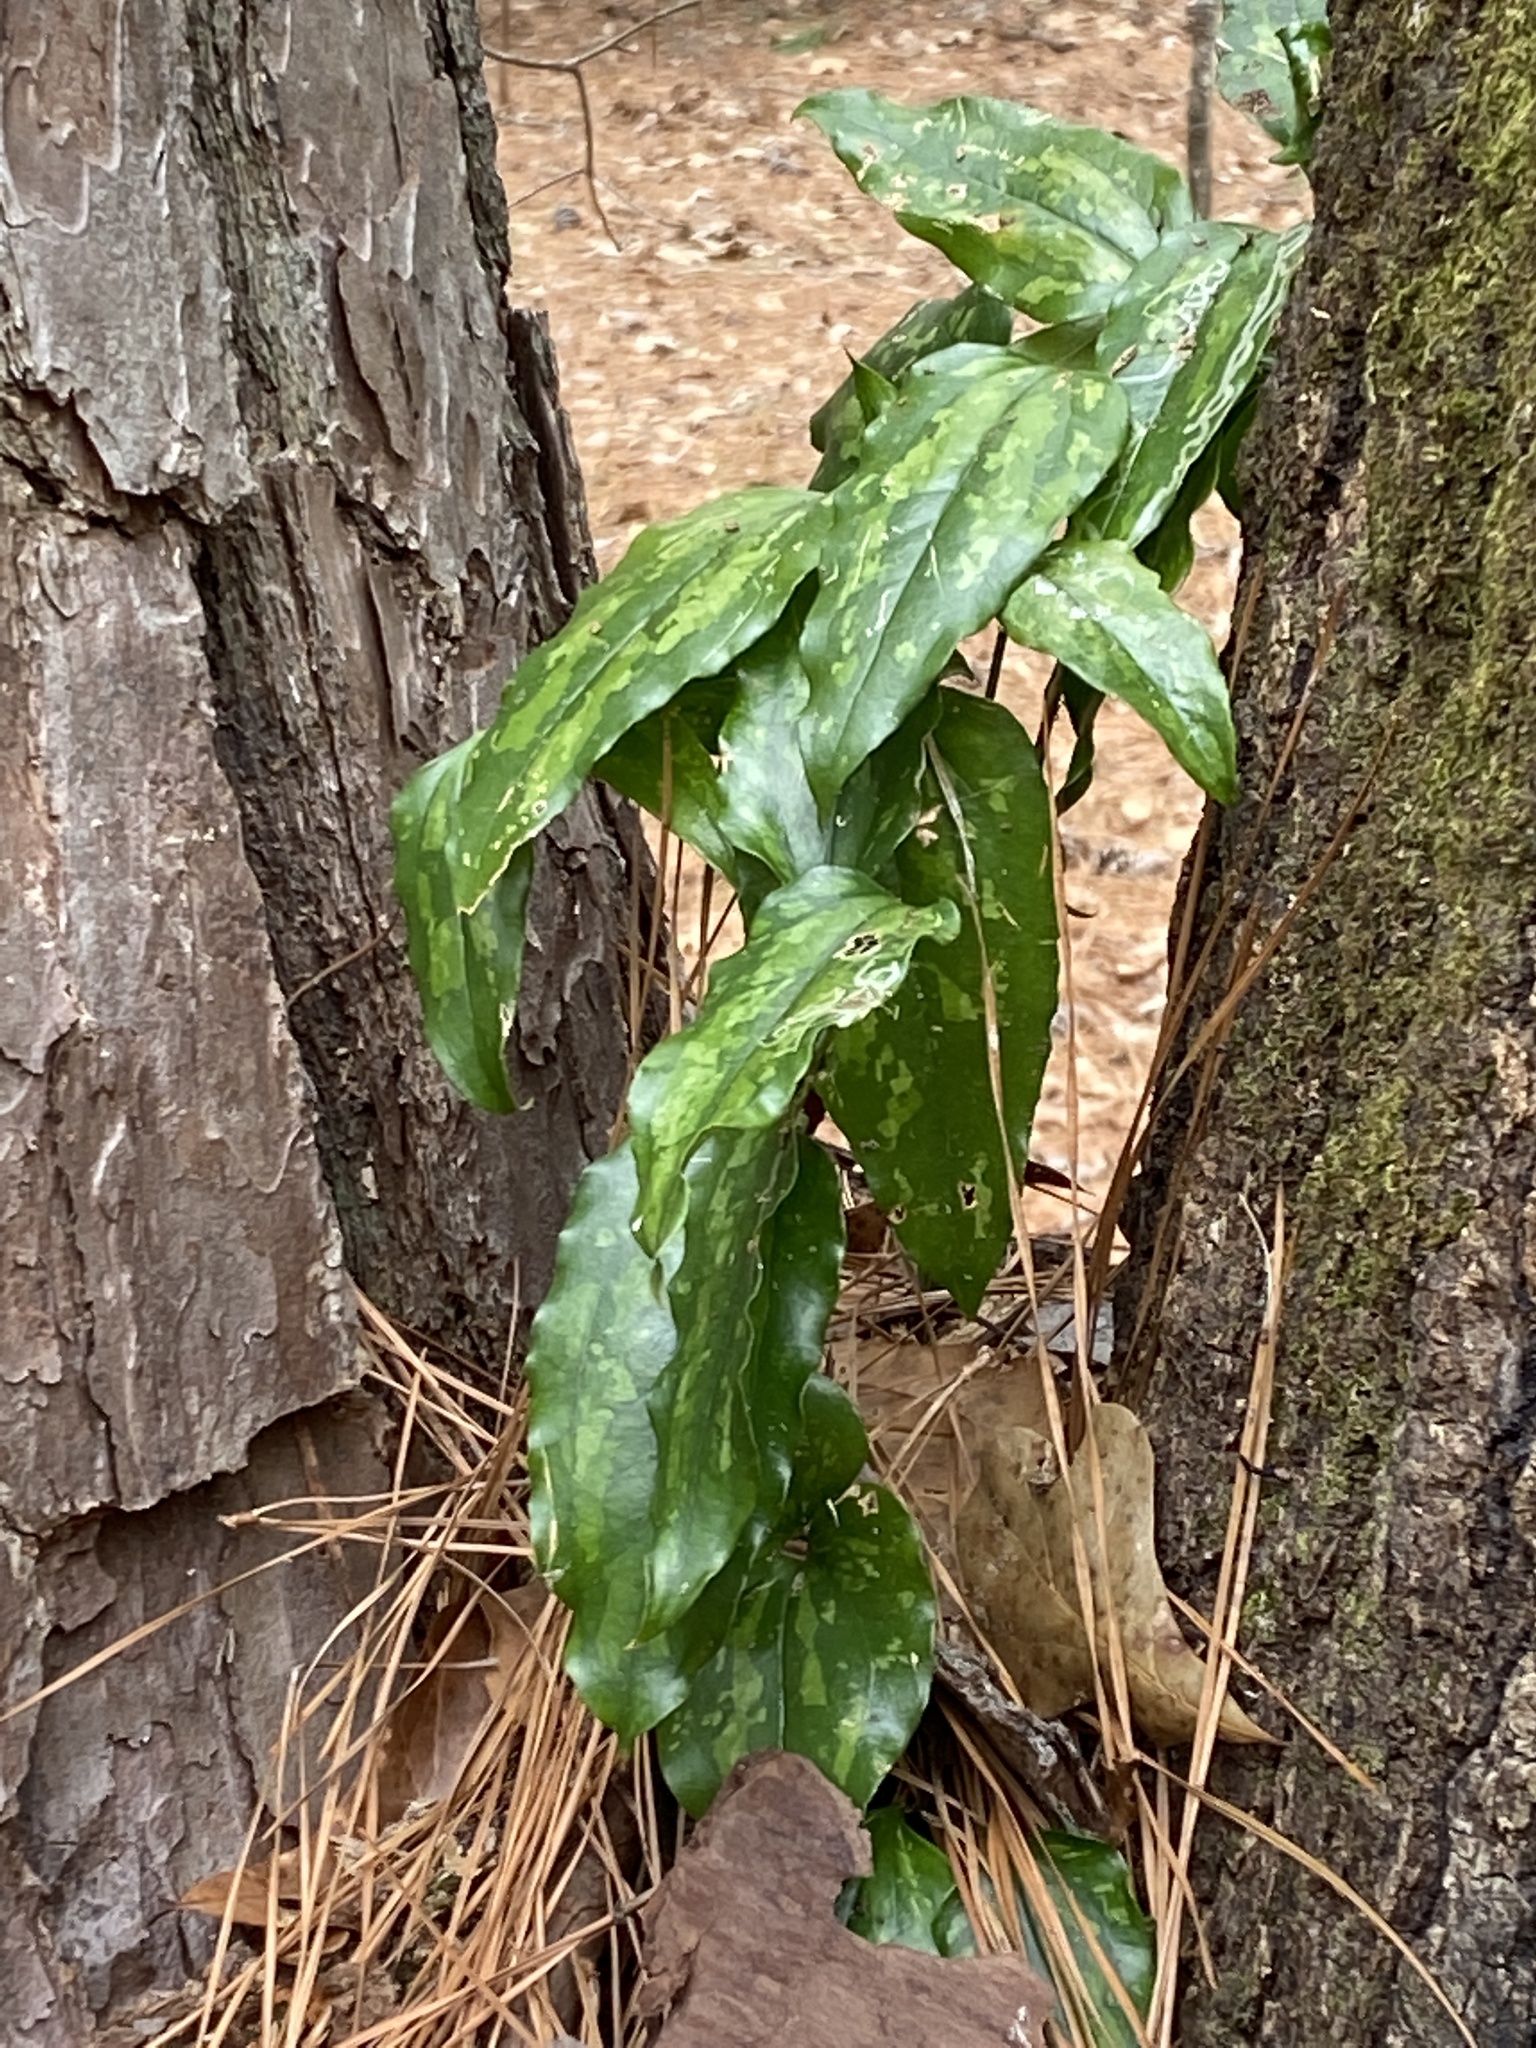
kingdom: Plantae
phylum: Tracheophyta
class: Liliopsida
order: Liliales
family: Smilacaceae
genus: Smilax
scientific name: Smilax maritima
